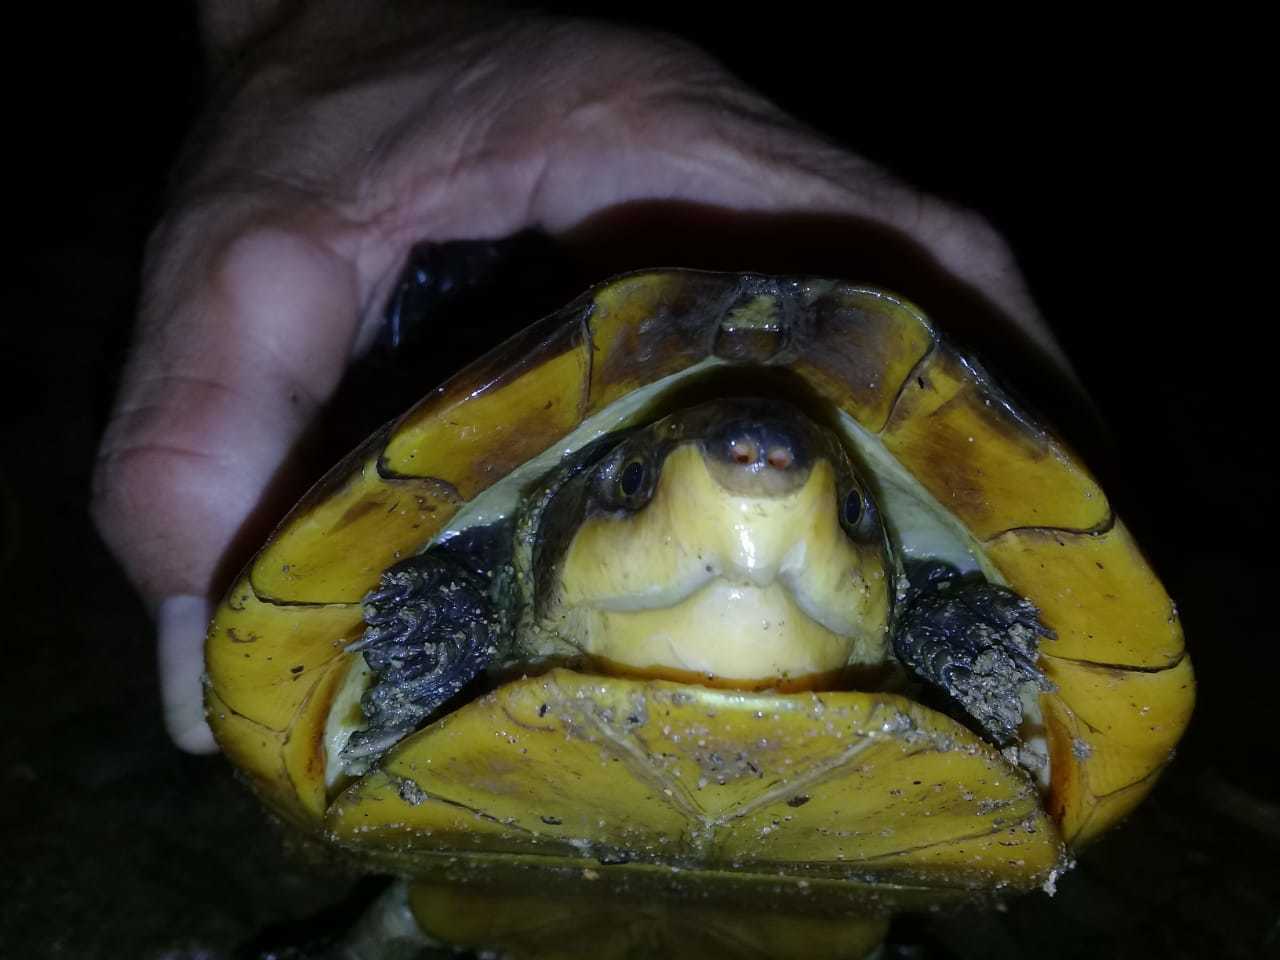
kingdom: Animalia
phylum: Chordata
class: Testudines
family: Kinosternidae
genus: Kinosternon
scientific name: Kinosternon leucostomum
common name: White-lipped mud turtle
